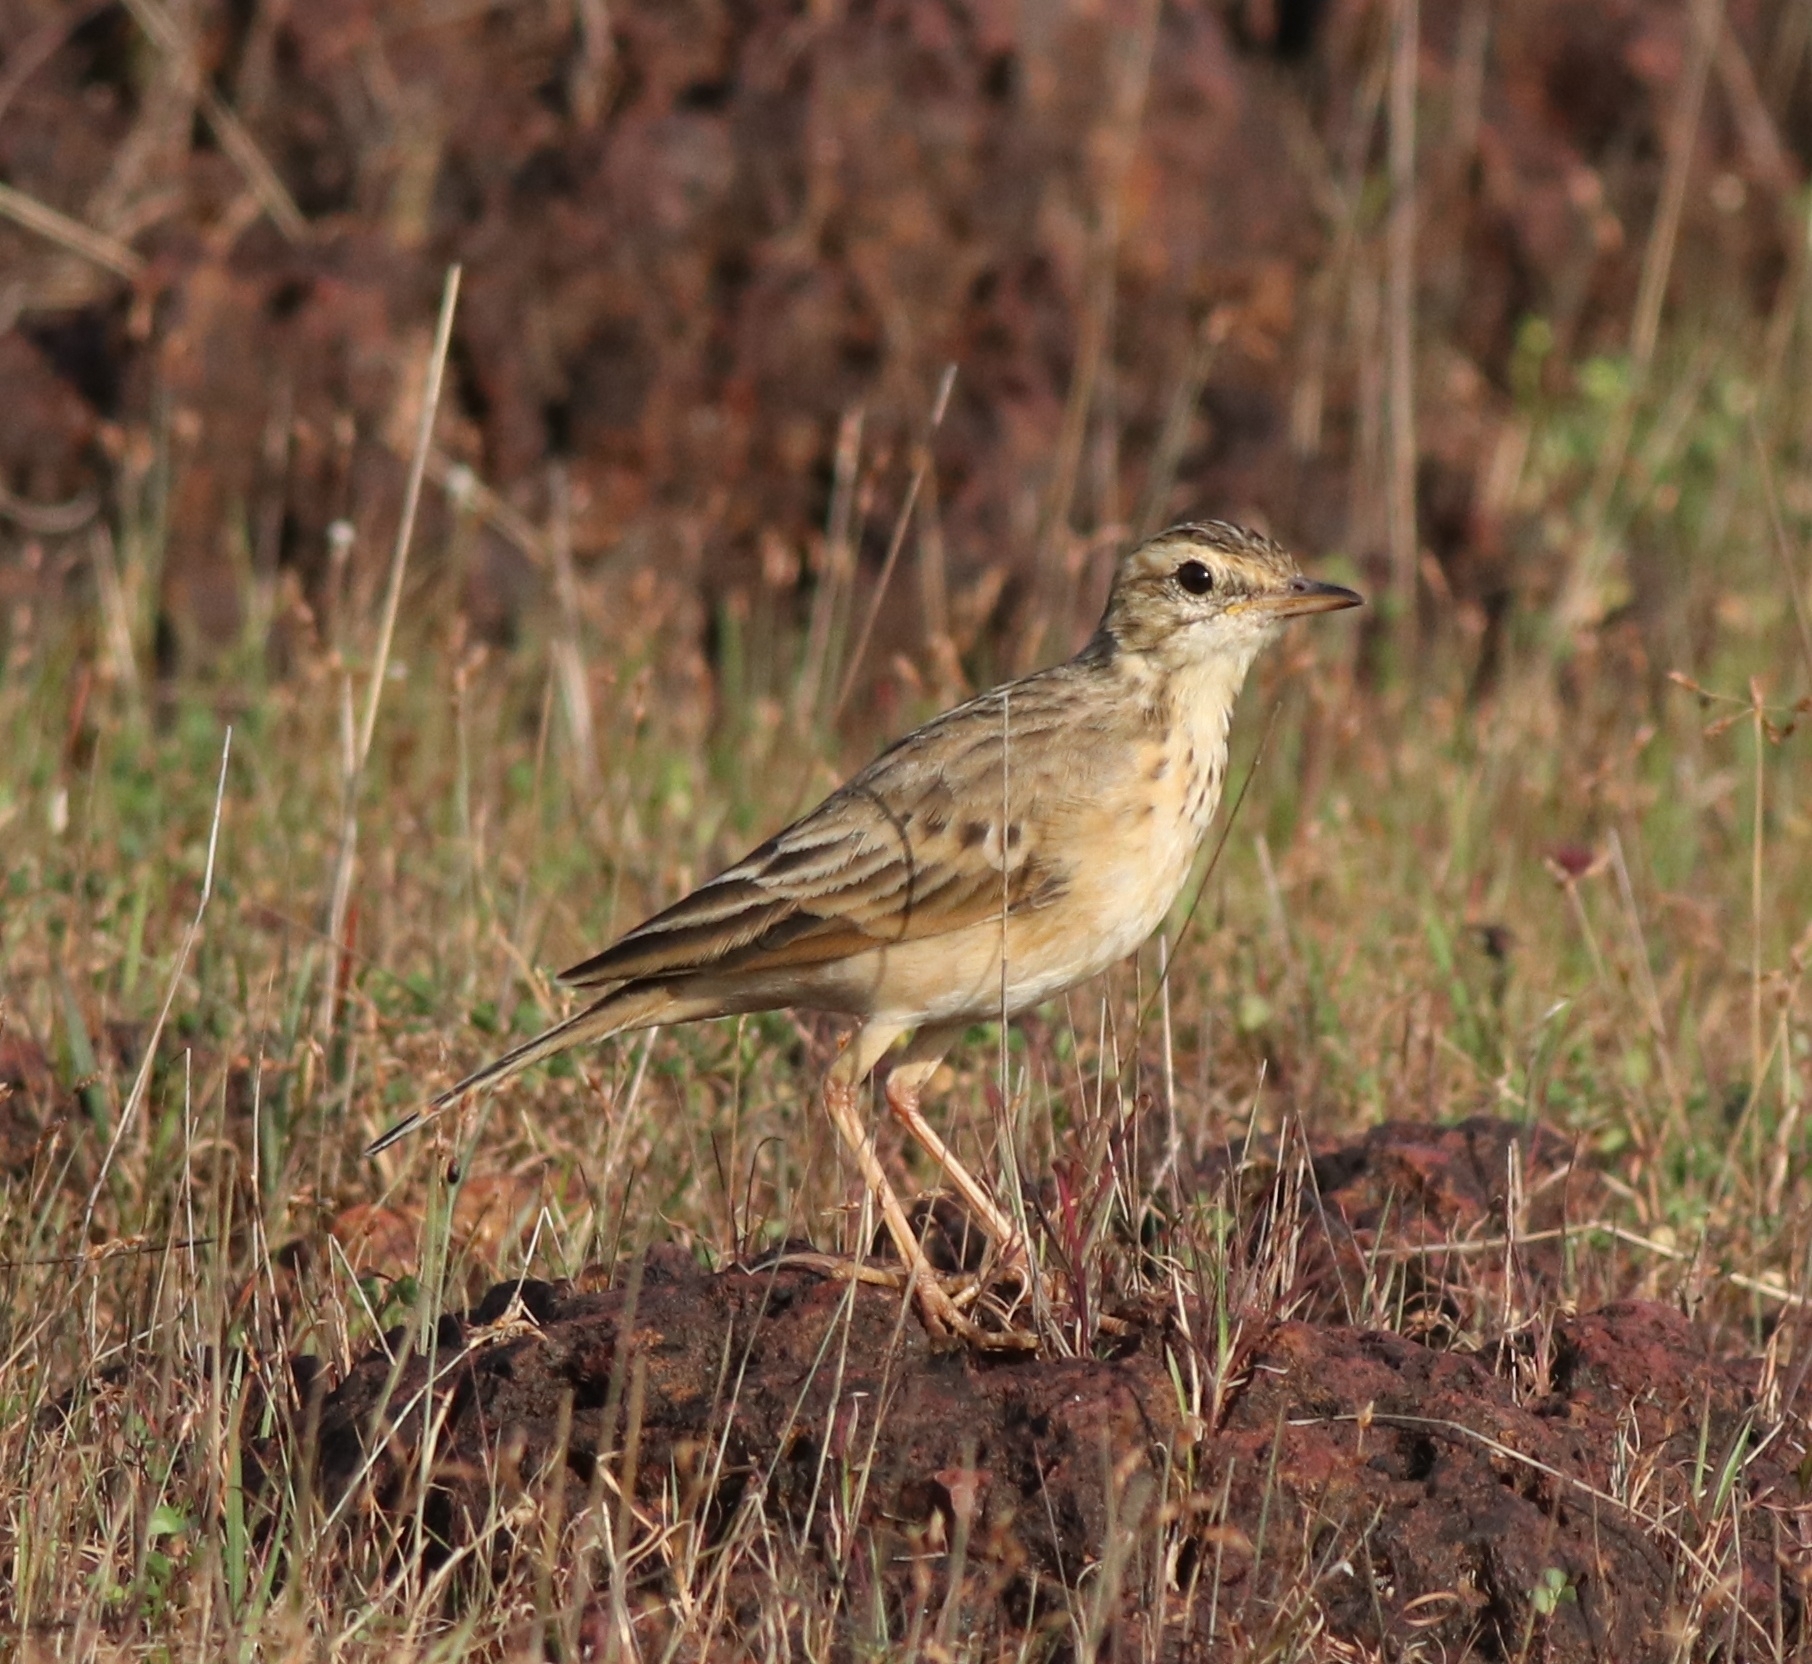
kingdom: Animalia
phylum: Chordata
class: Aves
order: Passeriformes
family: Motacillidae
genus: Anthus
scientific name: Anthus rufulus
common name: Paddyfield pipit
